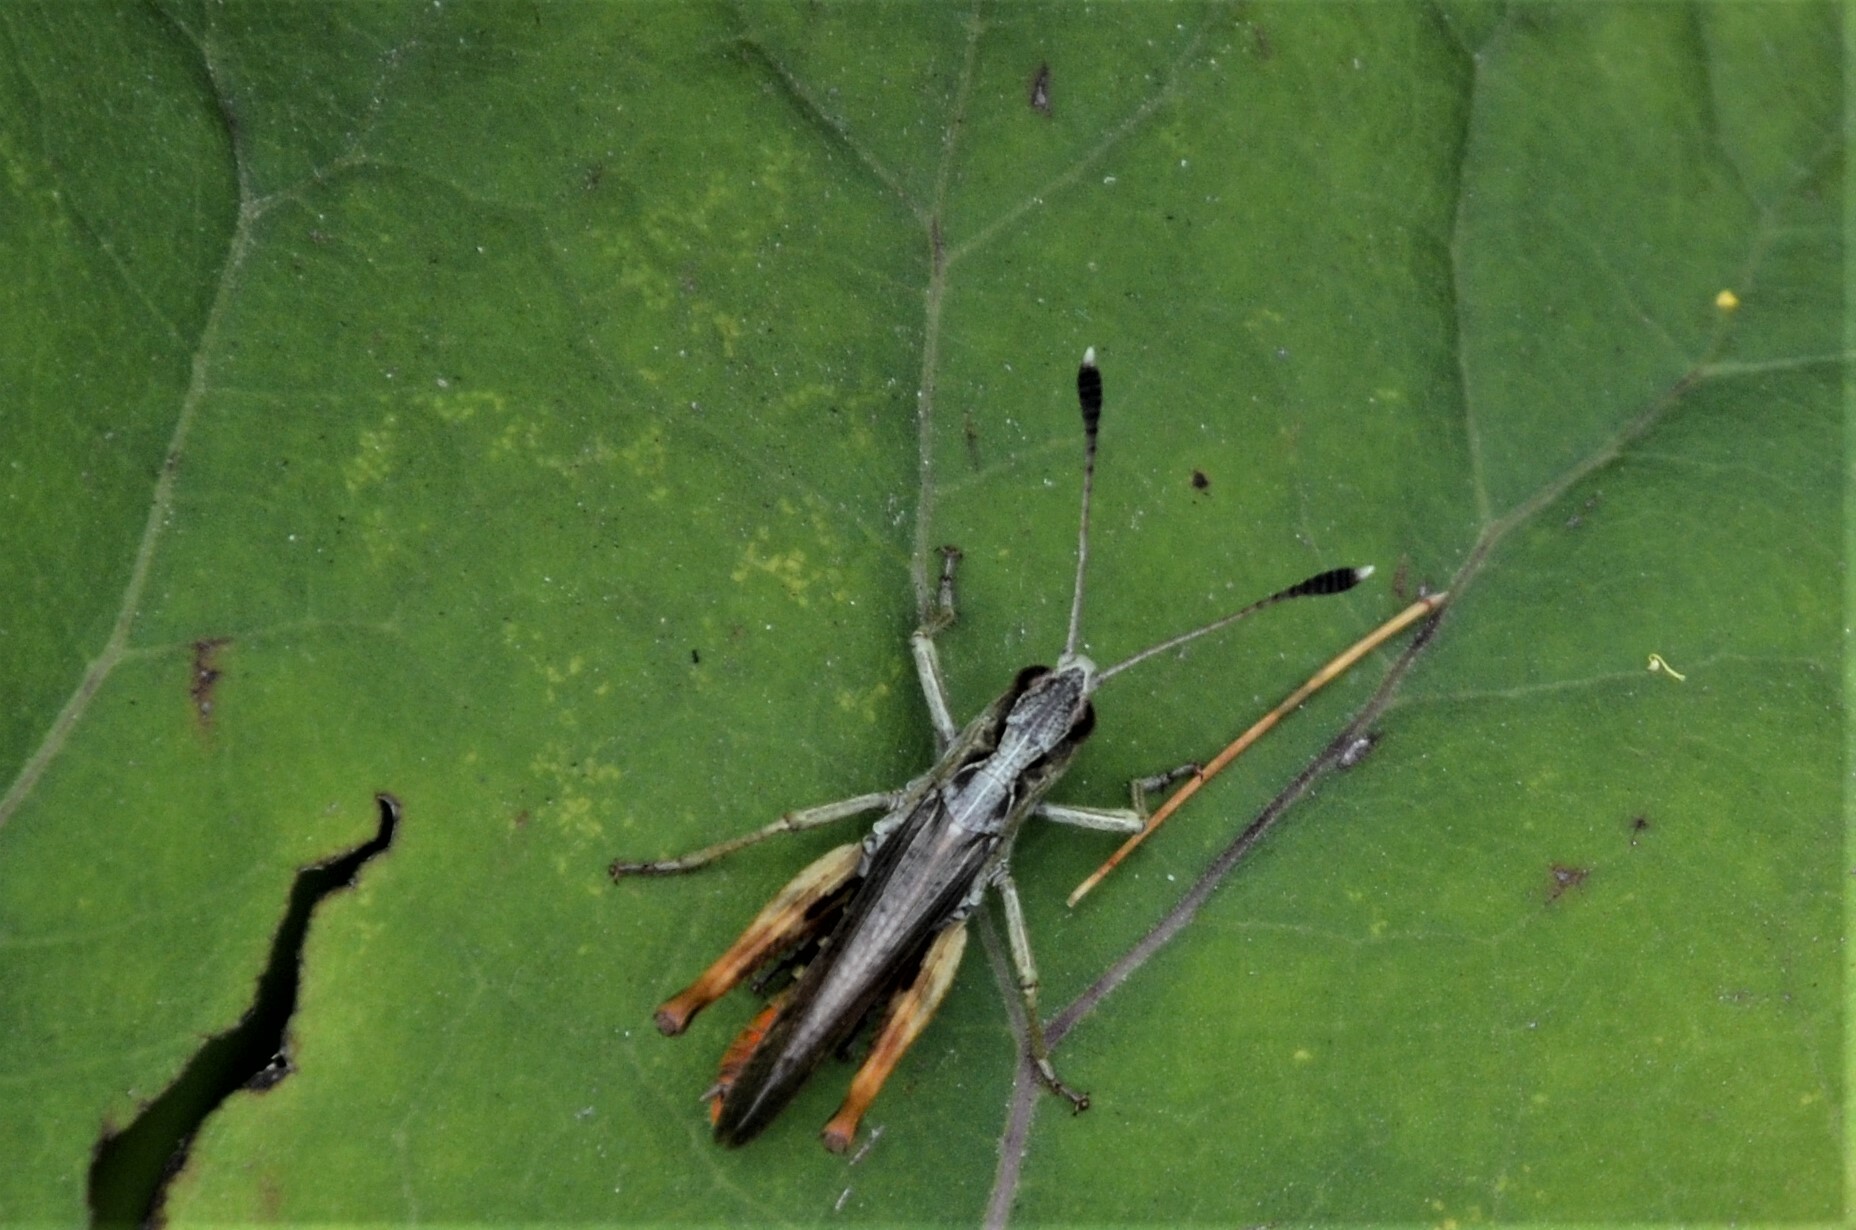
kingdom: Animalia
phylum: Arthropoda
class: Insecta
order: Orthoptera
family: Acrididae
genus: Gomphocerippus
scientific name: Gomphocerippus rufus
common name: Rufous grasshopper
